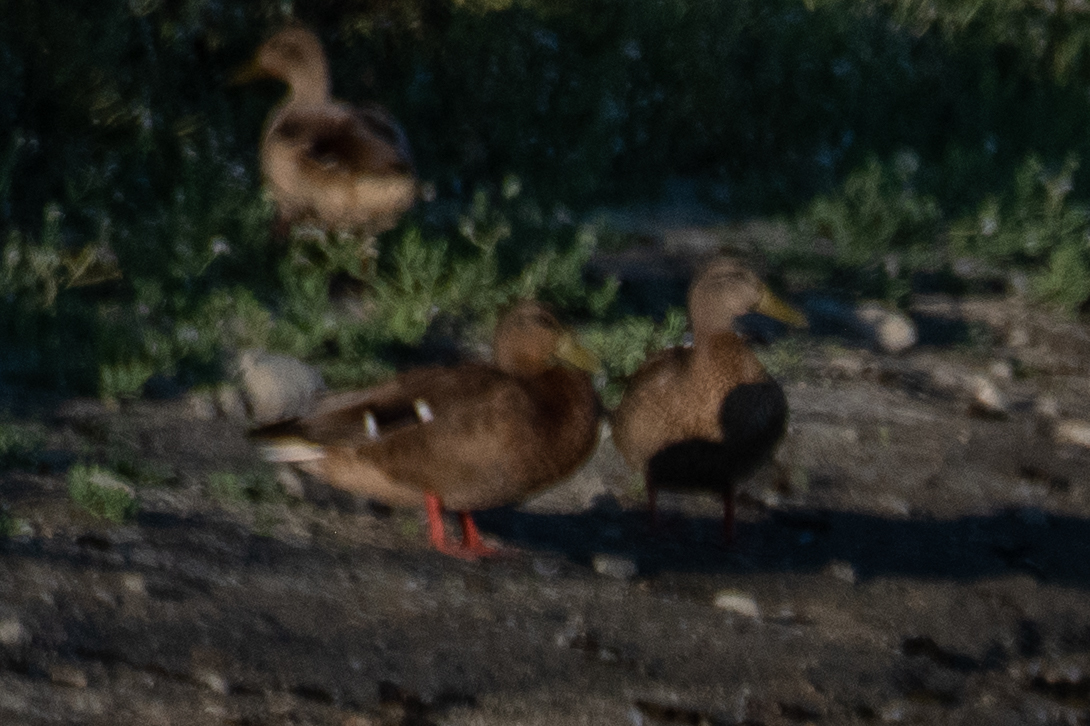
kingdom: Animalia
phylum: Chordata
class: Aves
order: Anseriformes
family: Anatidae
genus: Anas
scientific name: Anas platyrhynchos
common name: Mallard
